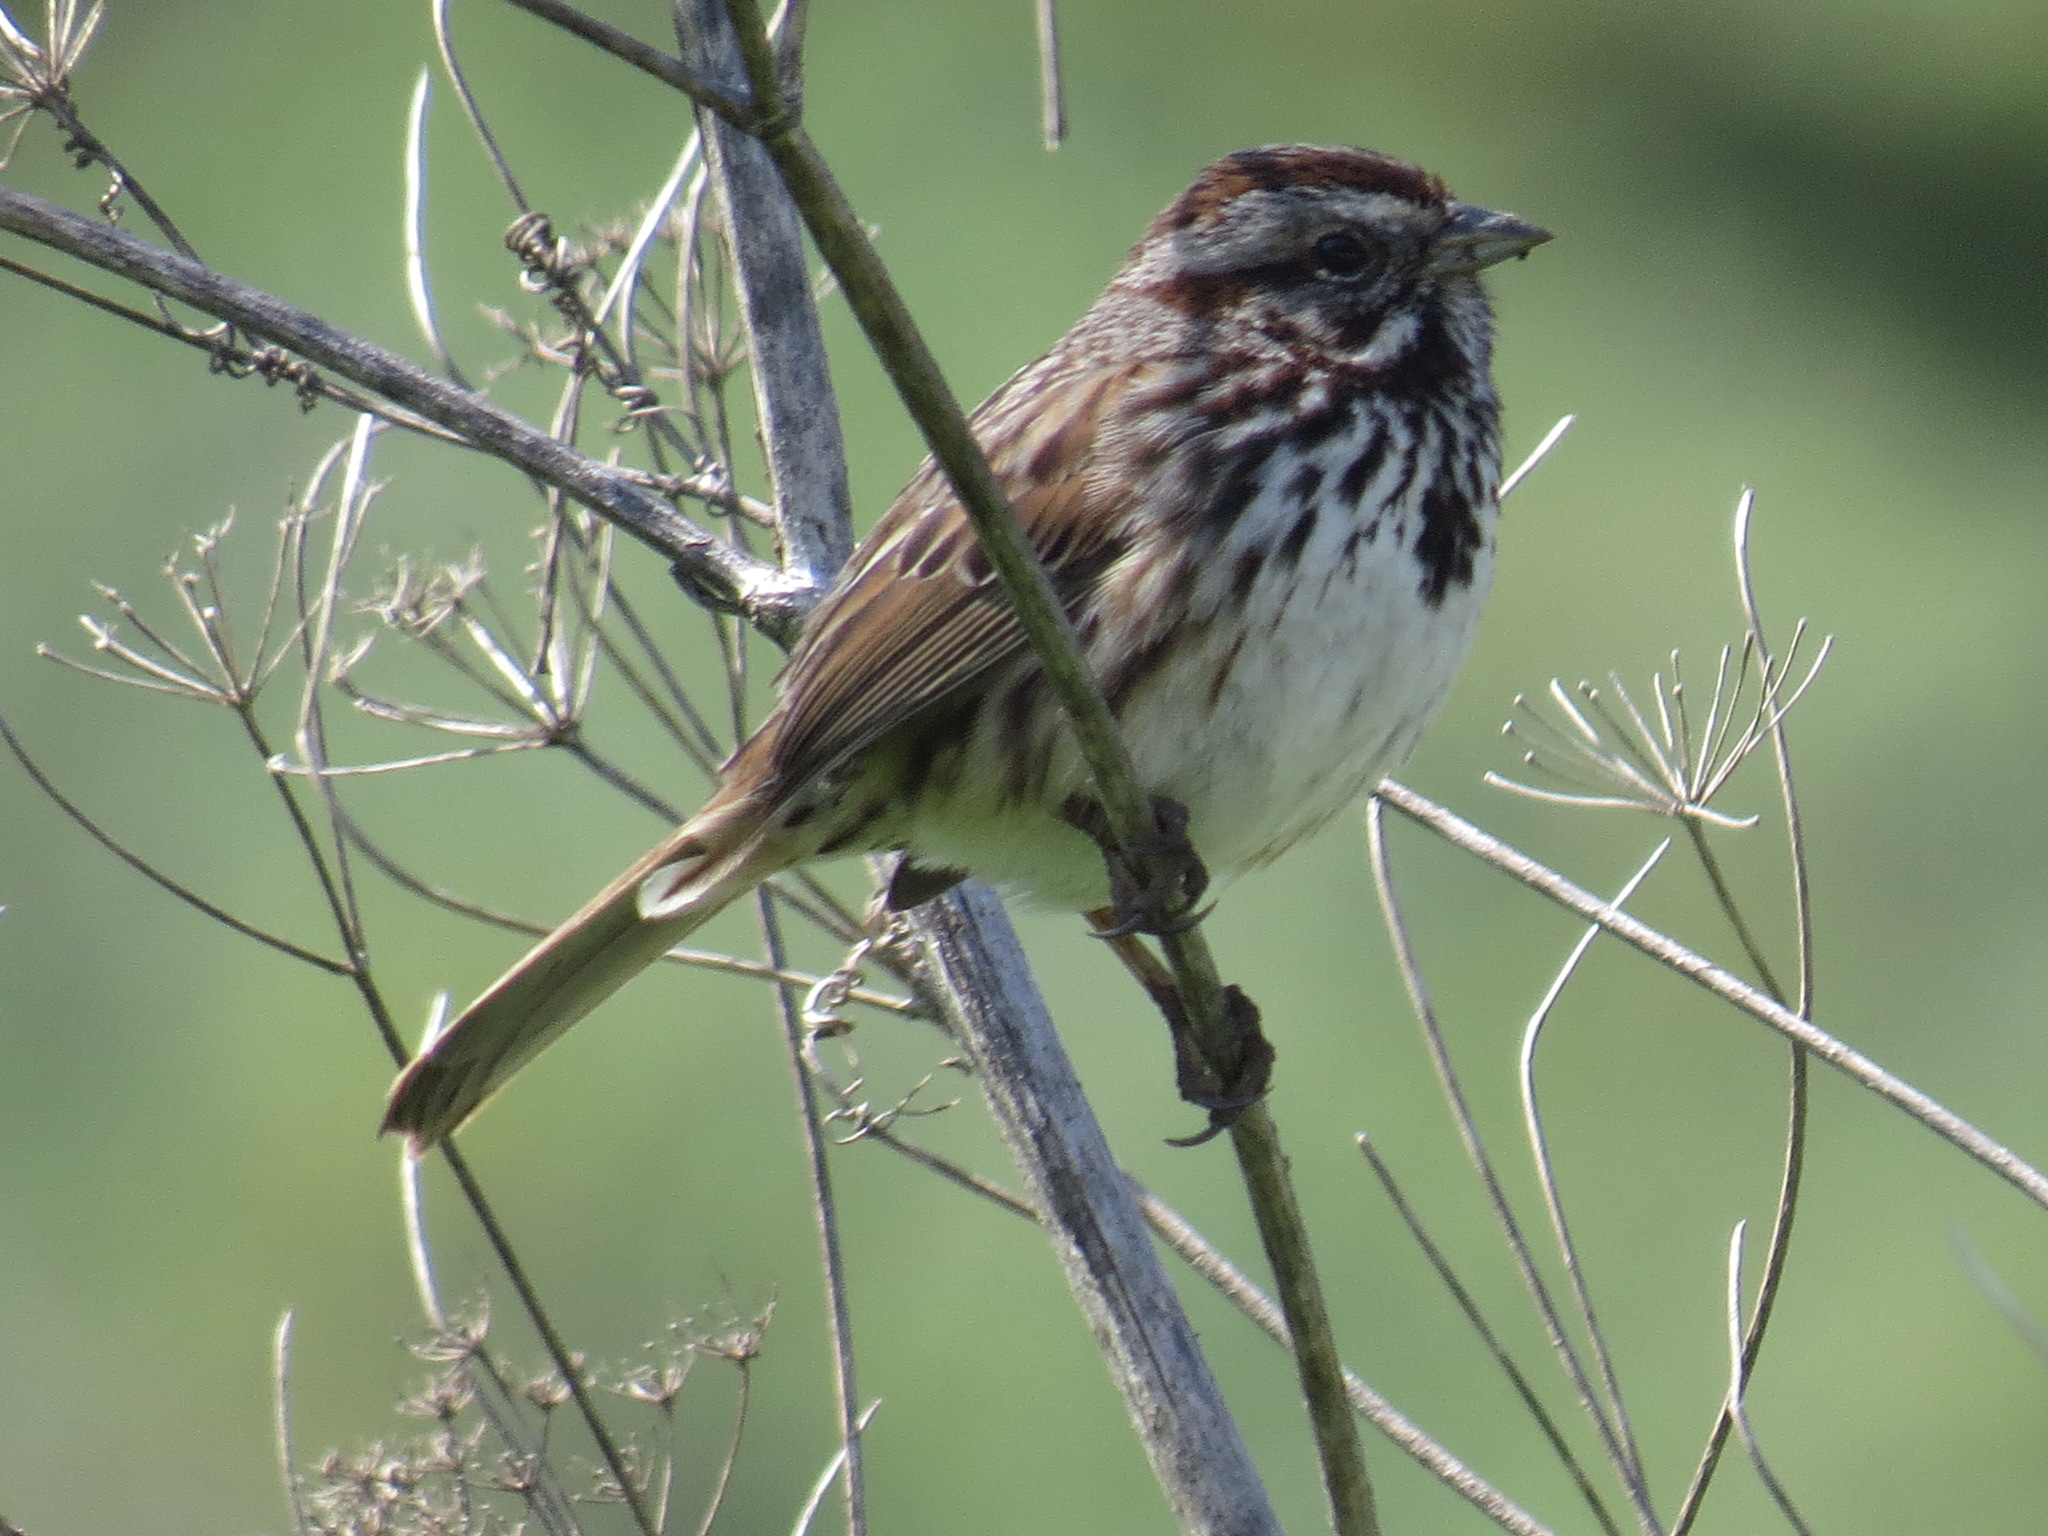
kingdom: Animalia
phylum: Chordata
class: Aves
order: Passeriformes
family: Passerellidae
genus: Melospiza
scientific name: Melospiza melodia
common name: Song sparrow
